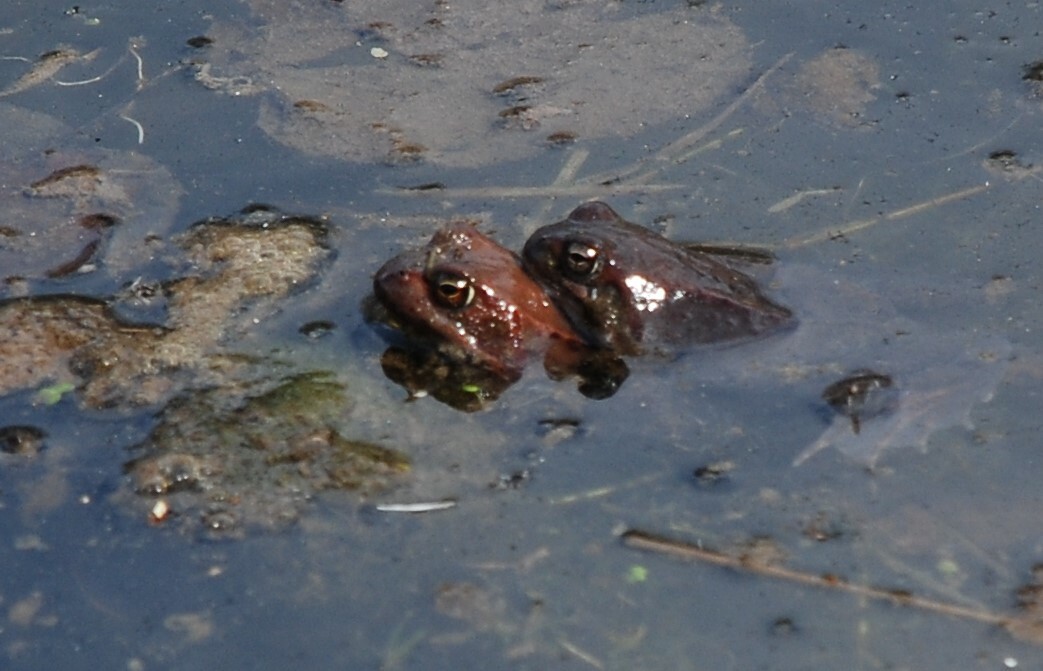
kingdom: Animalia
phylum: Chordata
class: Amphibia
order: Anura
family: Ranidae
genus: Rana
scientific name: Rana temporaria
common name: Common frog
